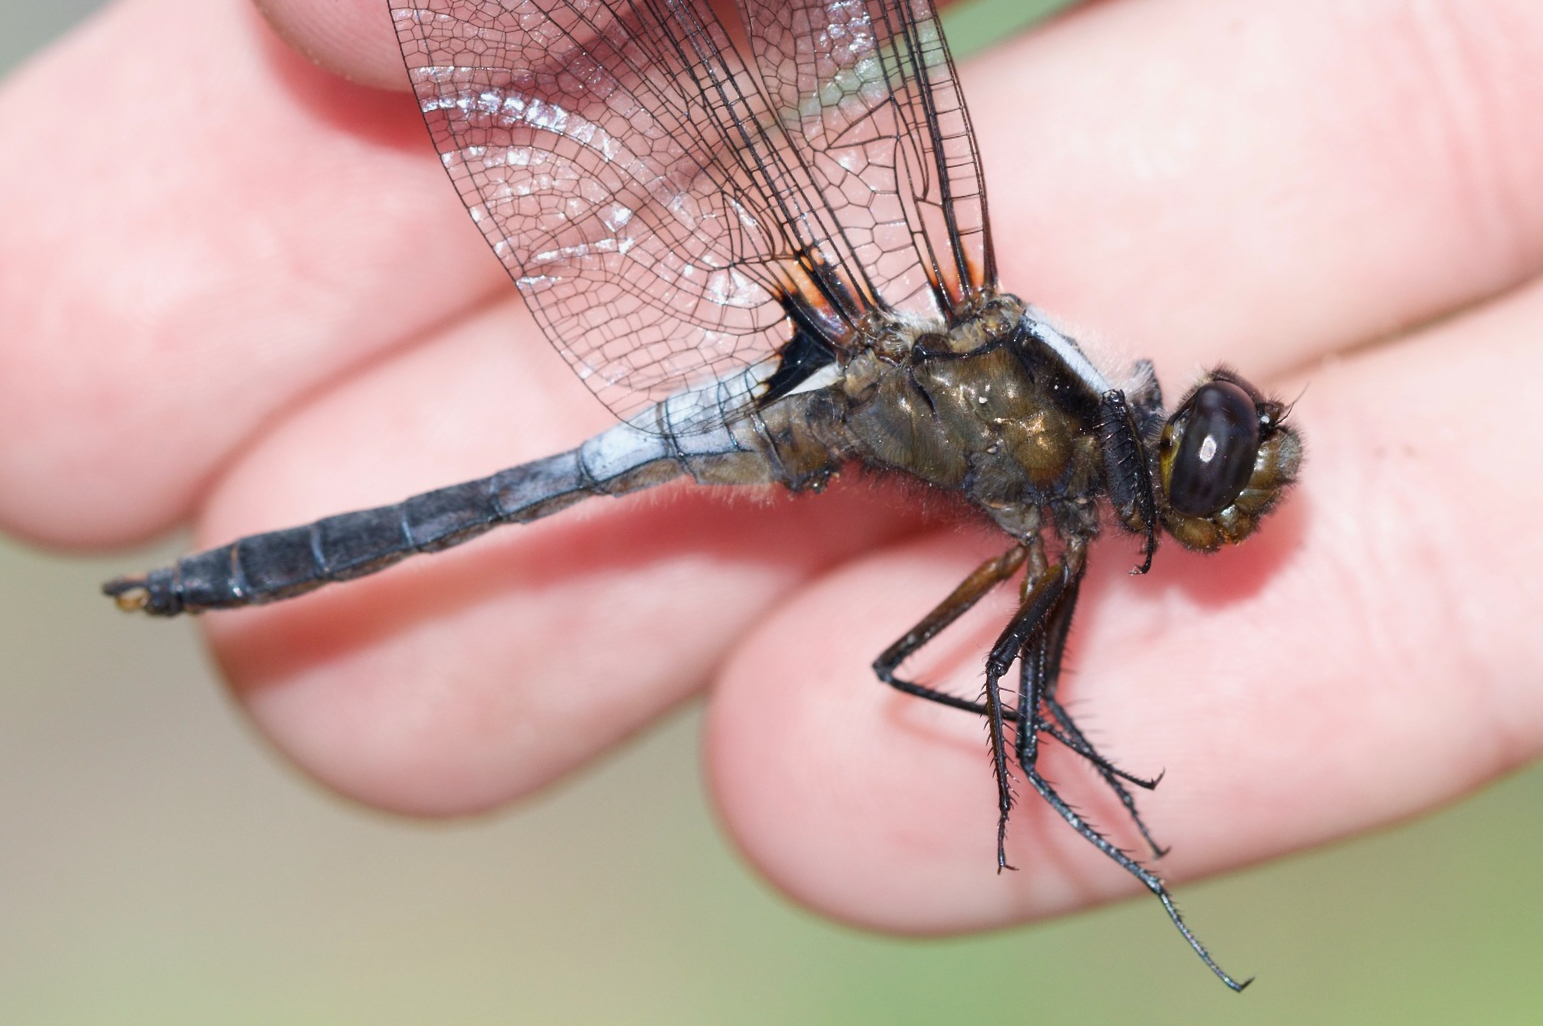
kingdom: Animalia
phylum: Arthropoda
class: Insecta
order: Odonata
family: Libellulidae
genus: Ladona
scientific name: Ladona julia
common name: Chalk-fronted corporal
